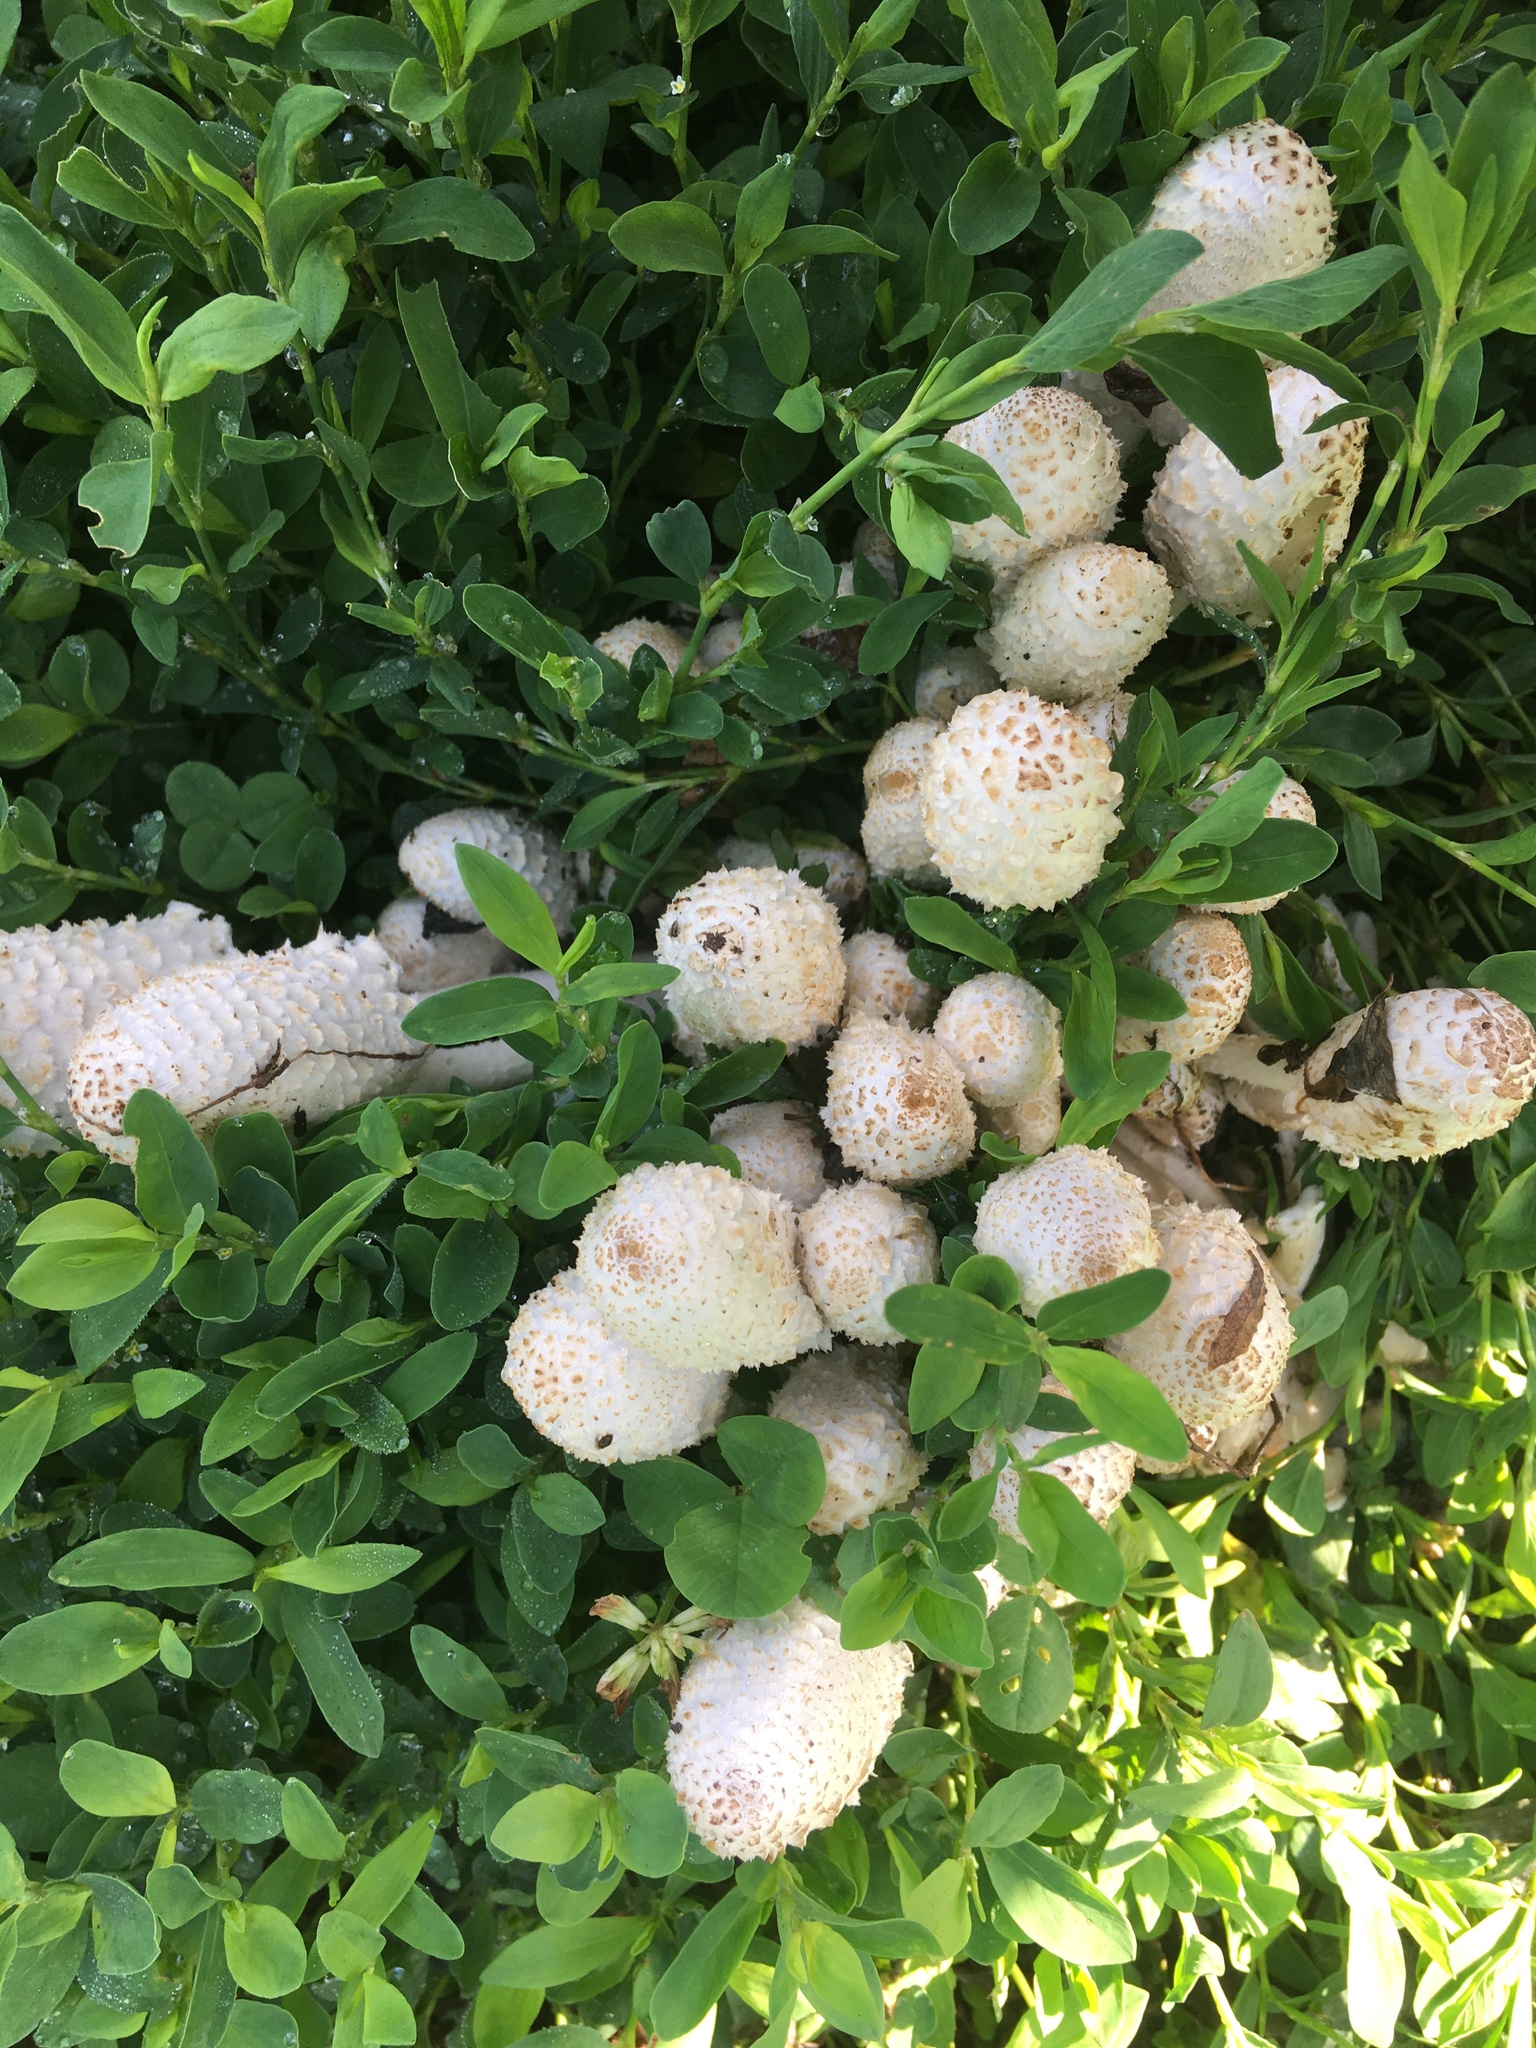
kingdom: Fungi
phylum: Basidiomycota
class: Agaricomycetes
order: Agaricales
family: Psathyrellaceae
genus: Coprinopsis
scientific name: Coprinopsis variegata
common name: Scaly ink cap
